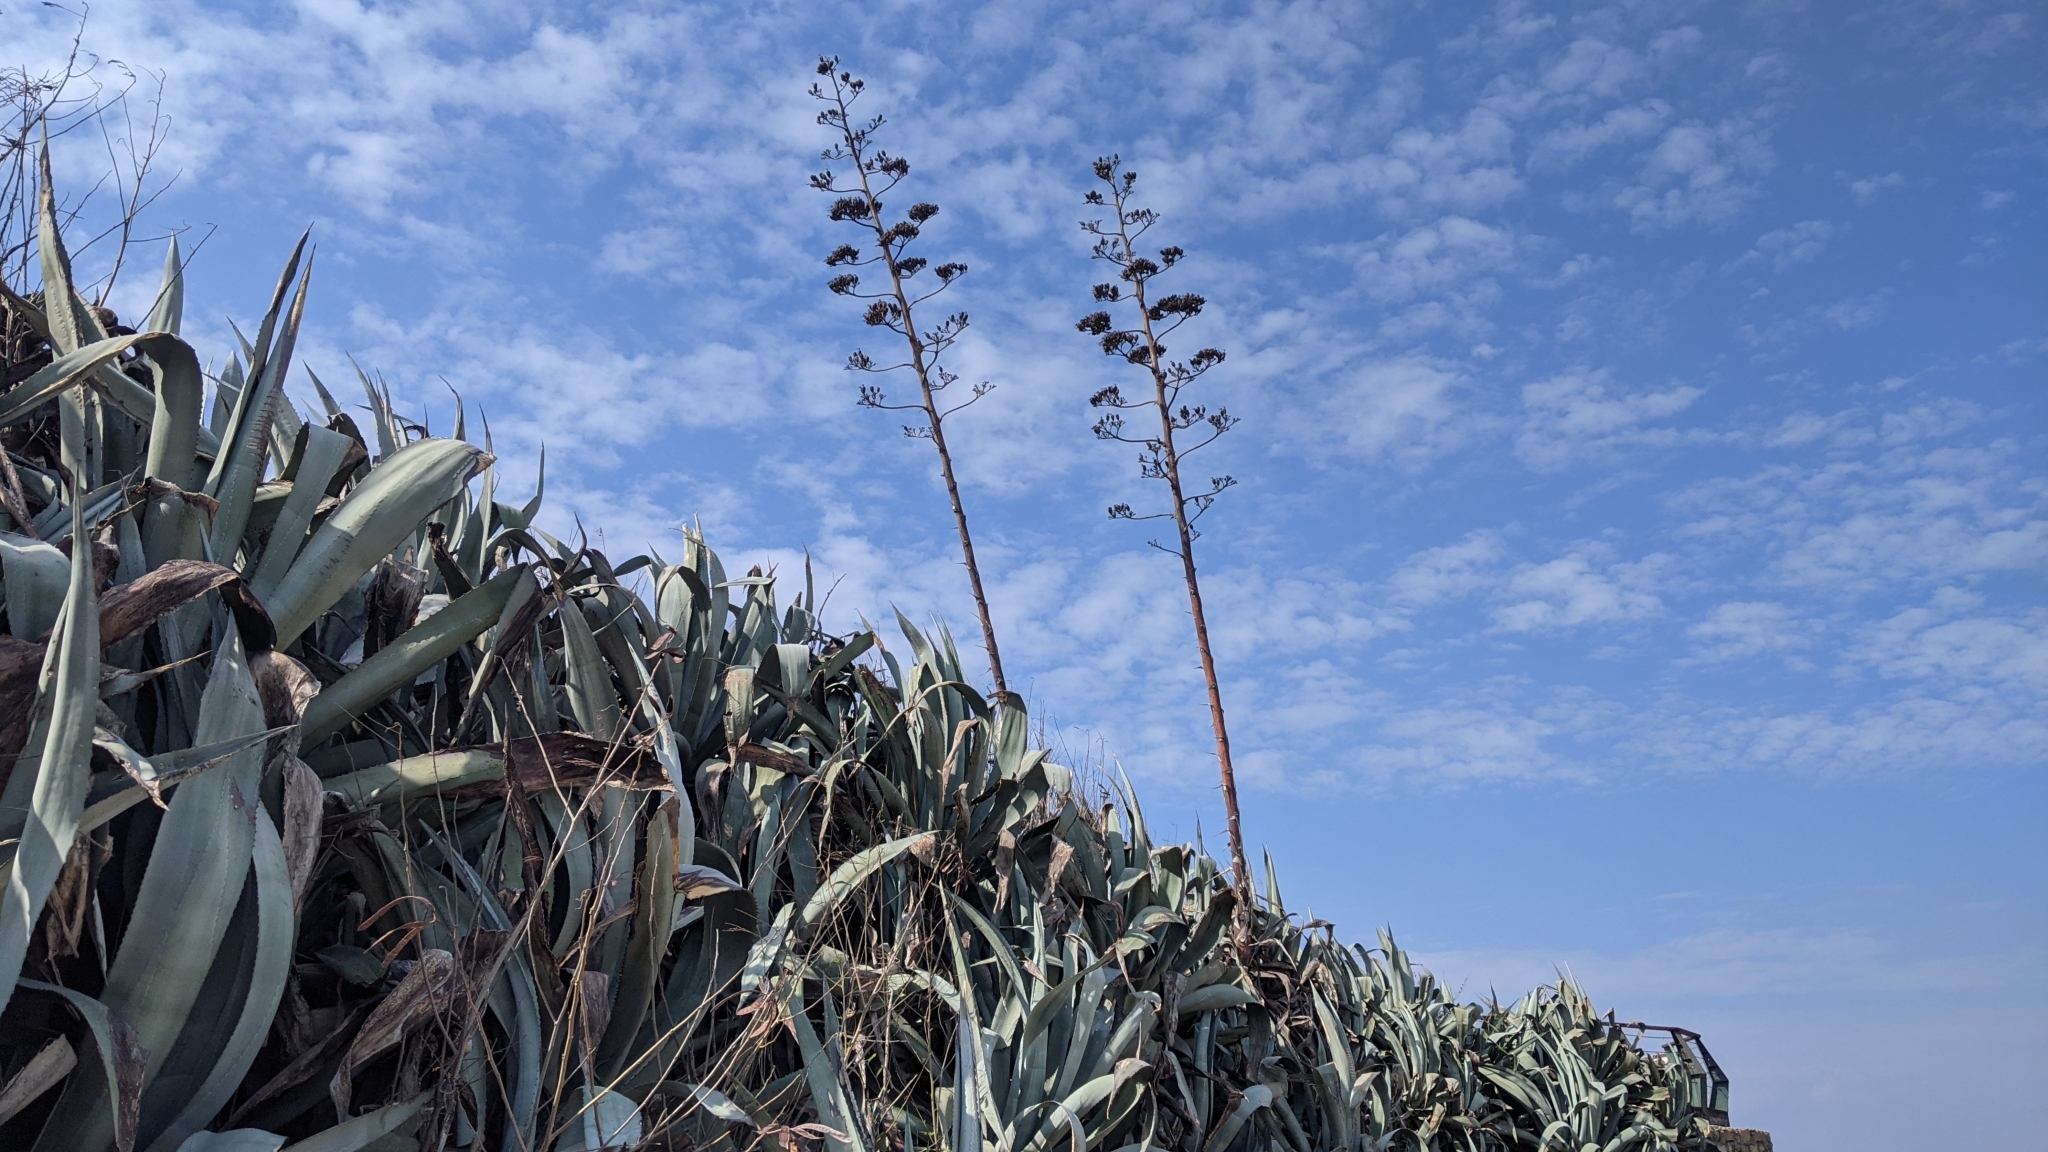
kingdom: Plantae
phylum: Tracheophyta
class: Liliopsida
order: Asparagales
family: Asparagaceae
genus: Agave
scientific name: Agave americana
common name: Centuryplant
